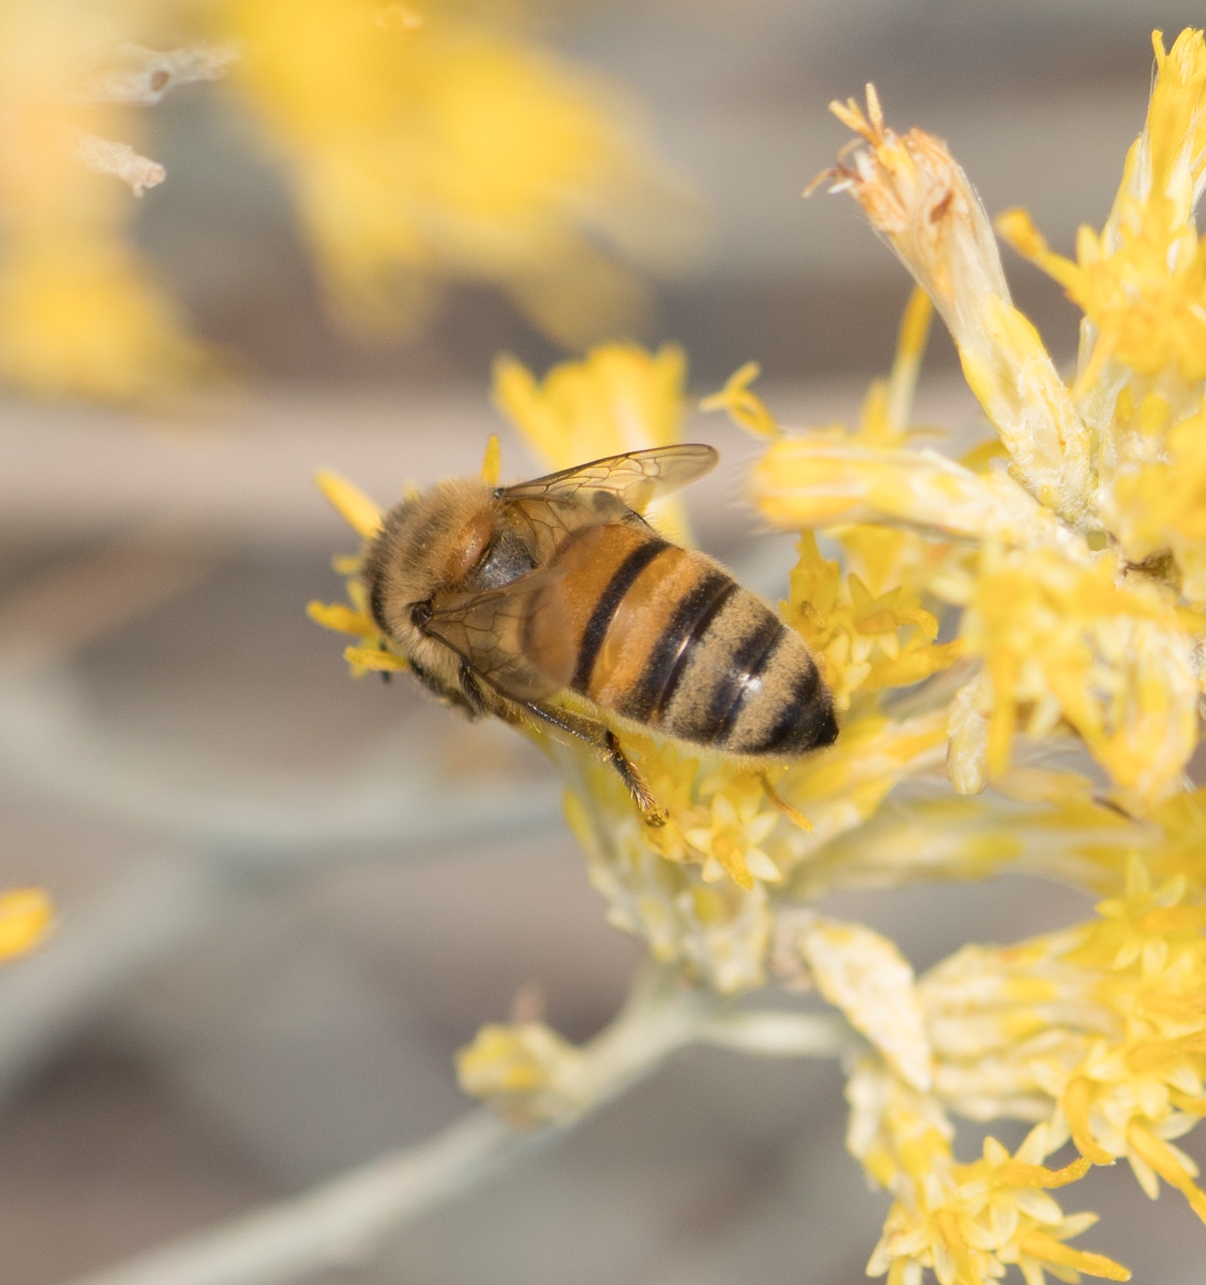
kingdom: Animalia
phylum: Arthropoda
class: Insecta
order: Hymenoptera
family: Apidae
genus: Apis
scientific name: Apis mellifera
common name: Honey bee
